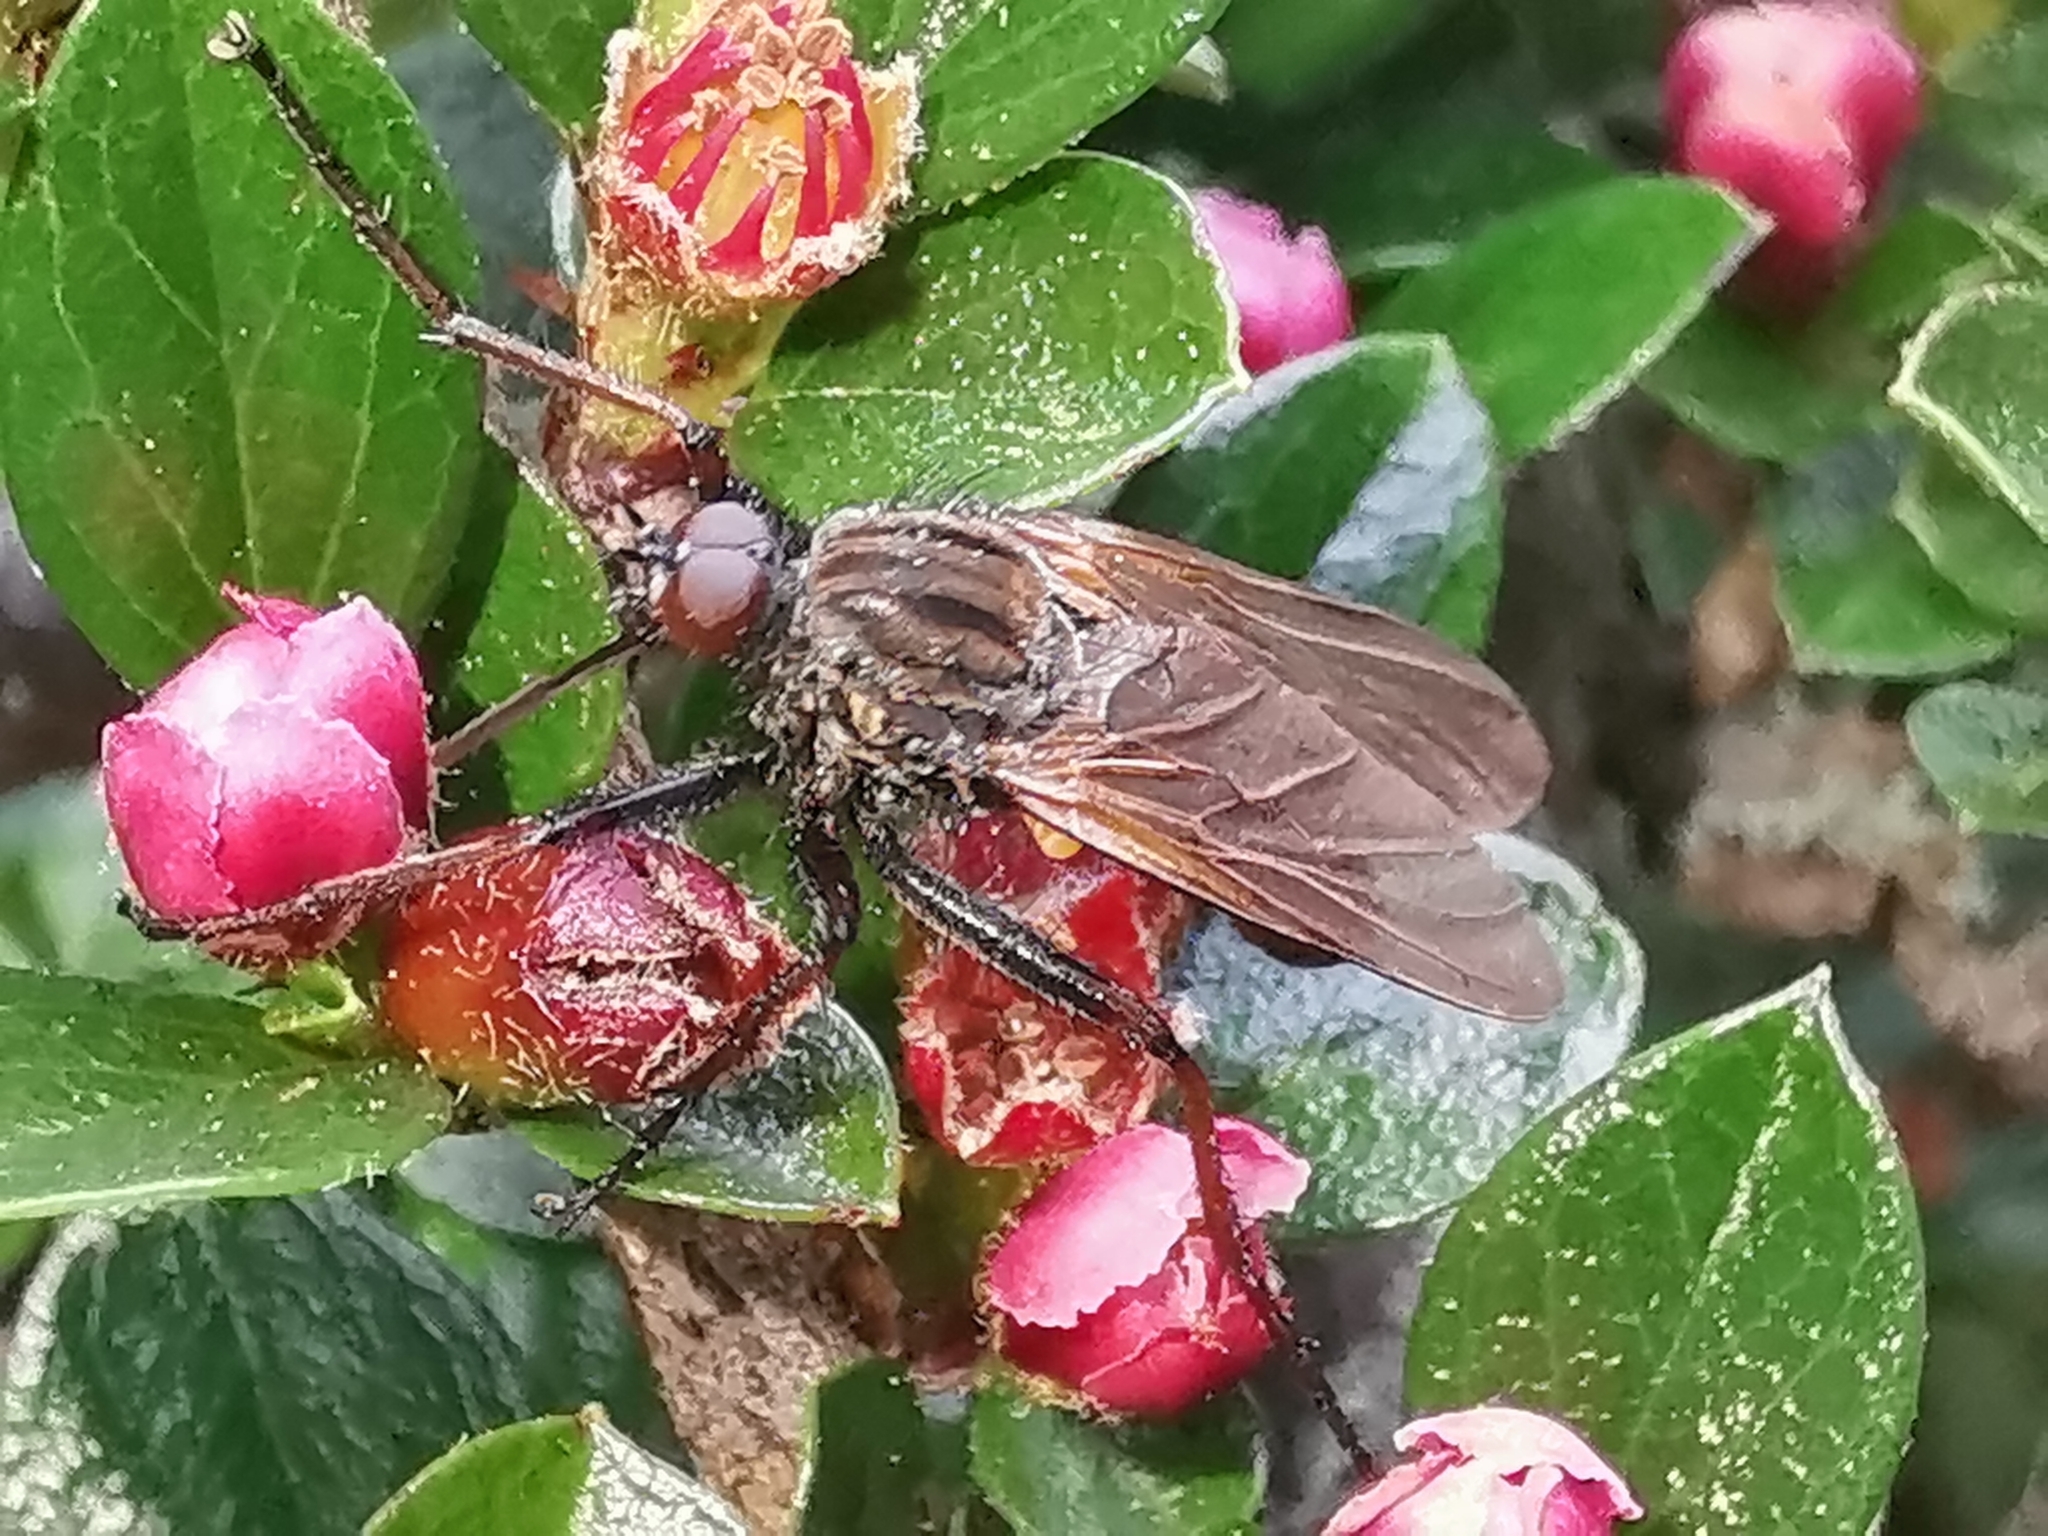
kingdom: Animalia
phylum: Arthropoda
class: Insecta
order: Diptera
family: Empididae
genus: Empis
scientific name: Empis tessellata
